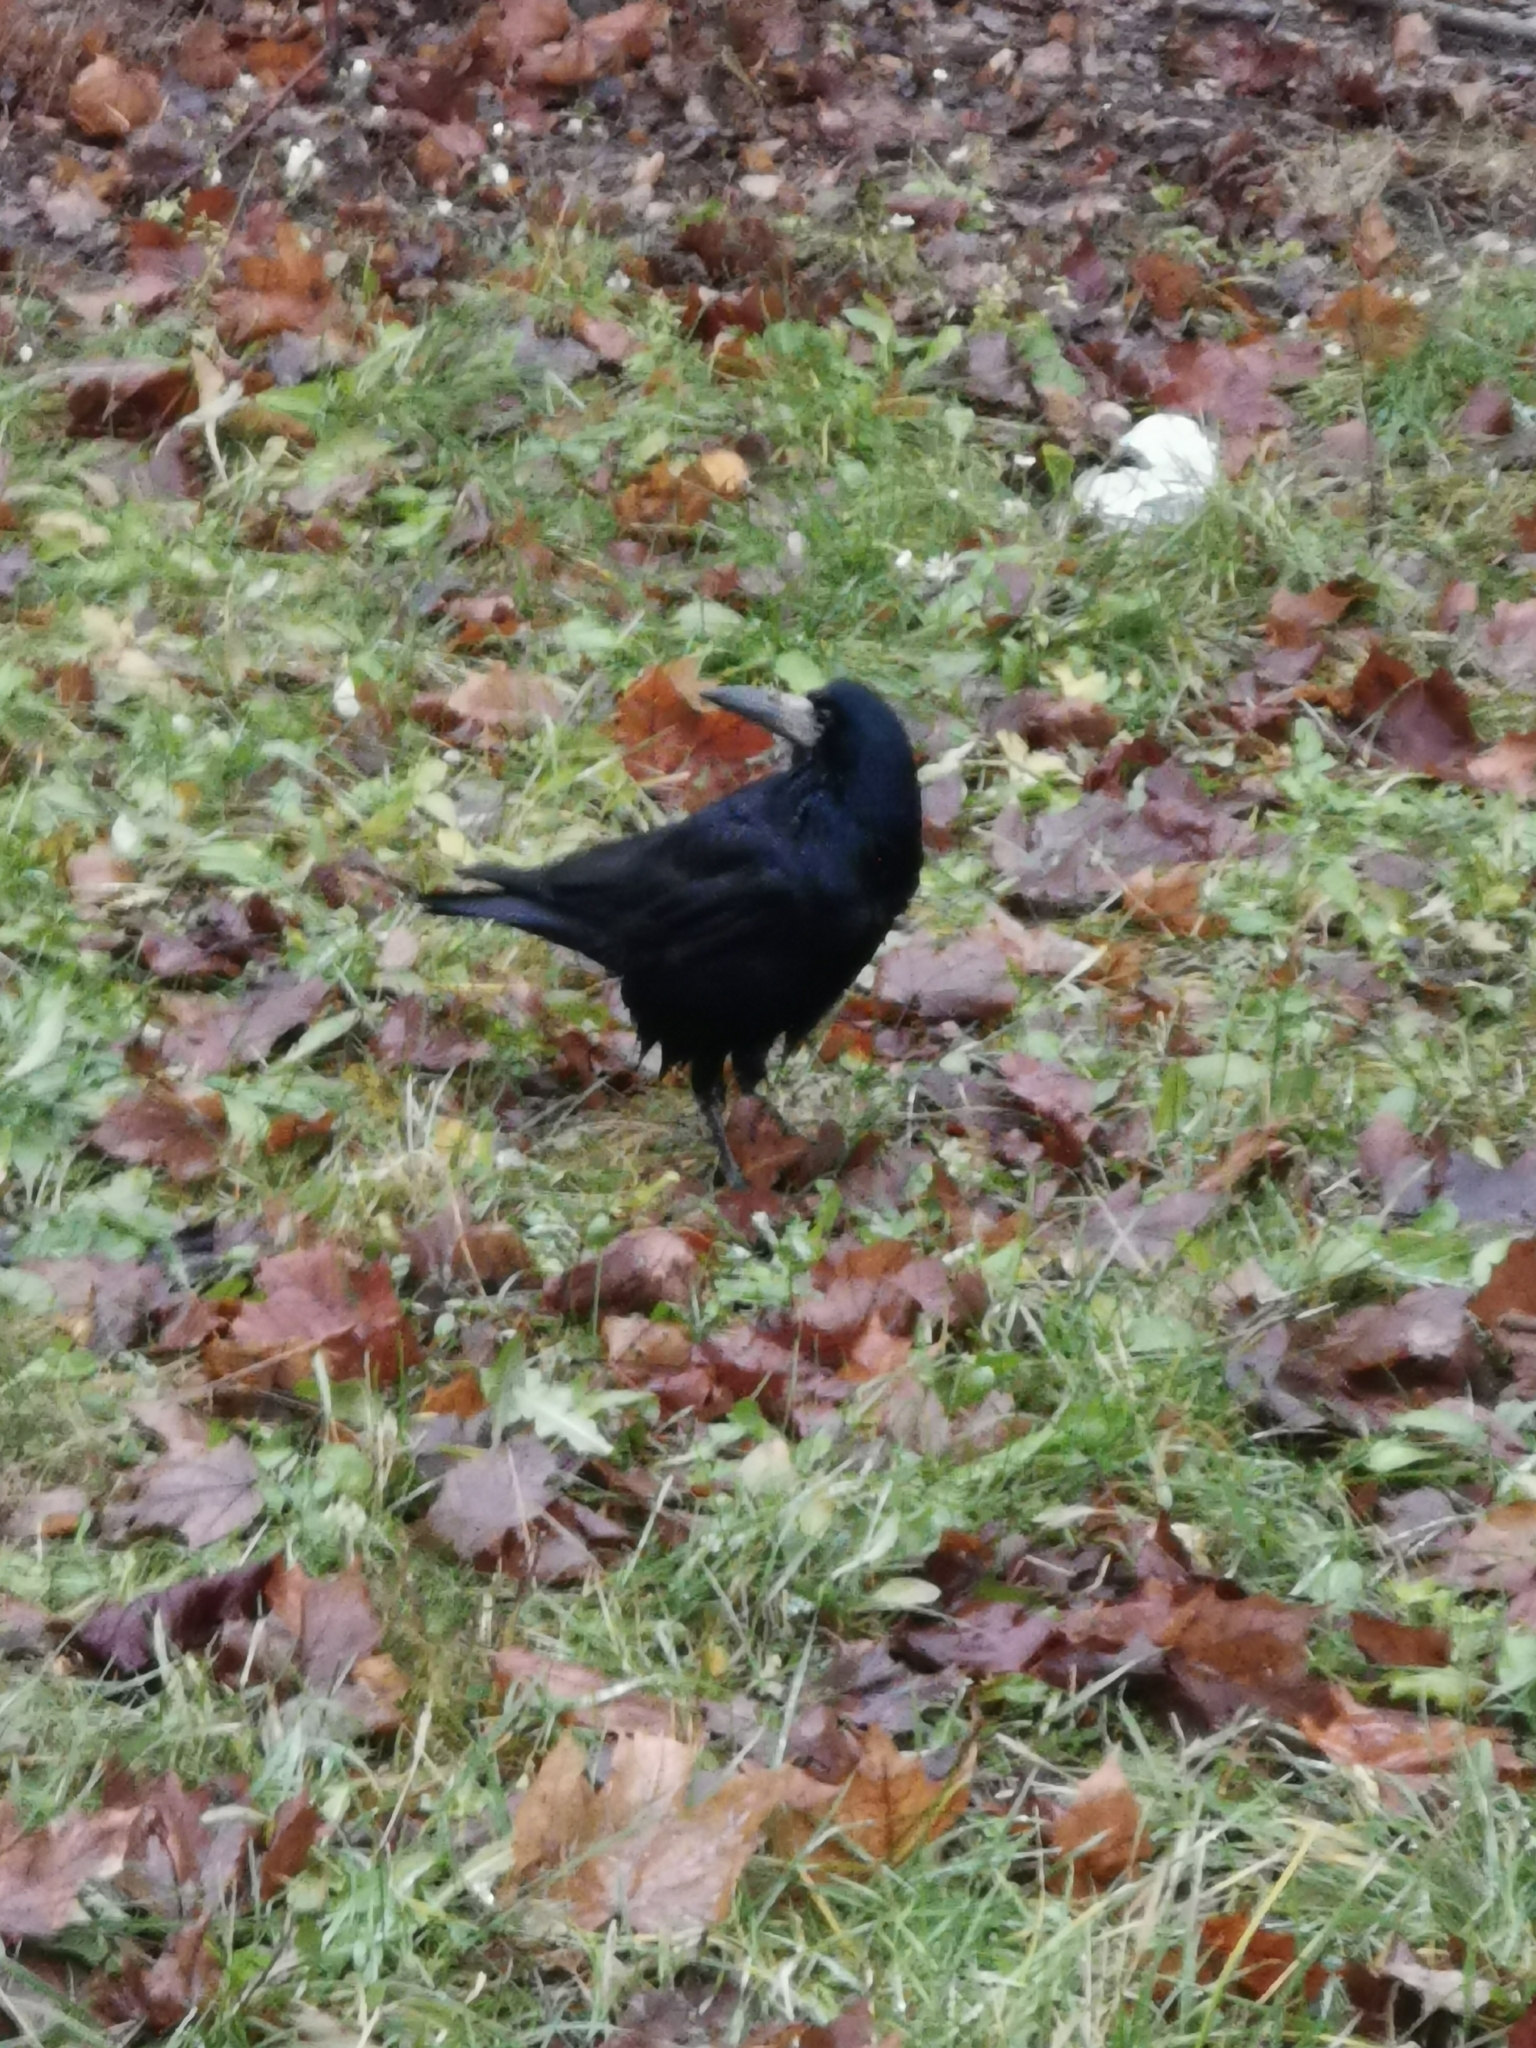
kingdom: Animalia
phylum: Chordata
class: Aves
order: Passeriformes
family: Corvidae
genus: Corvus
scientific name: Corvus frugilegus
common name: Rook
